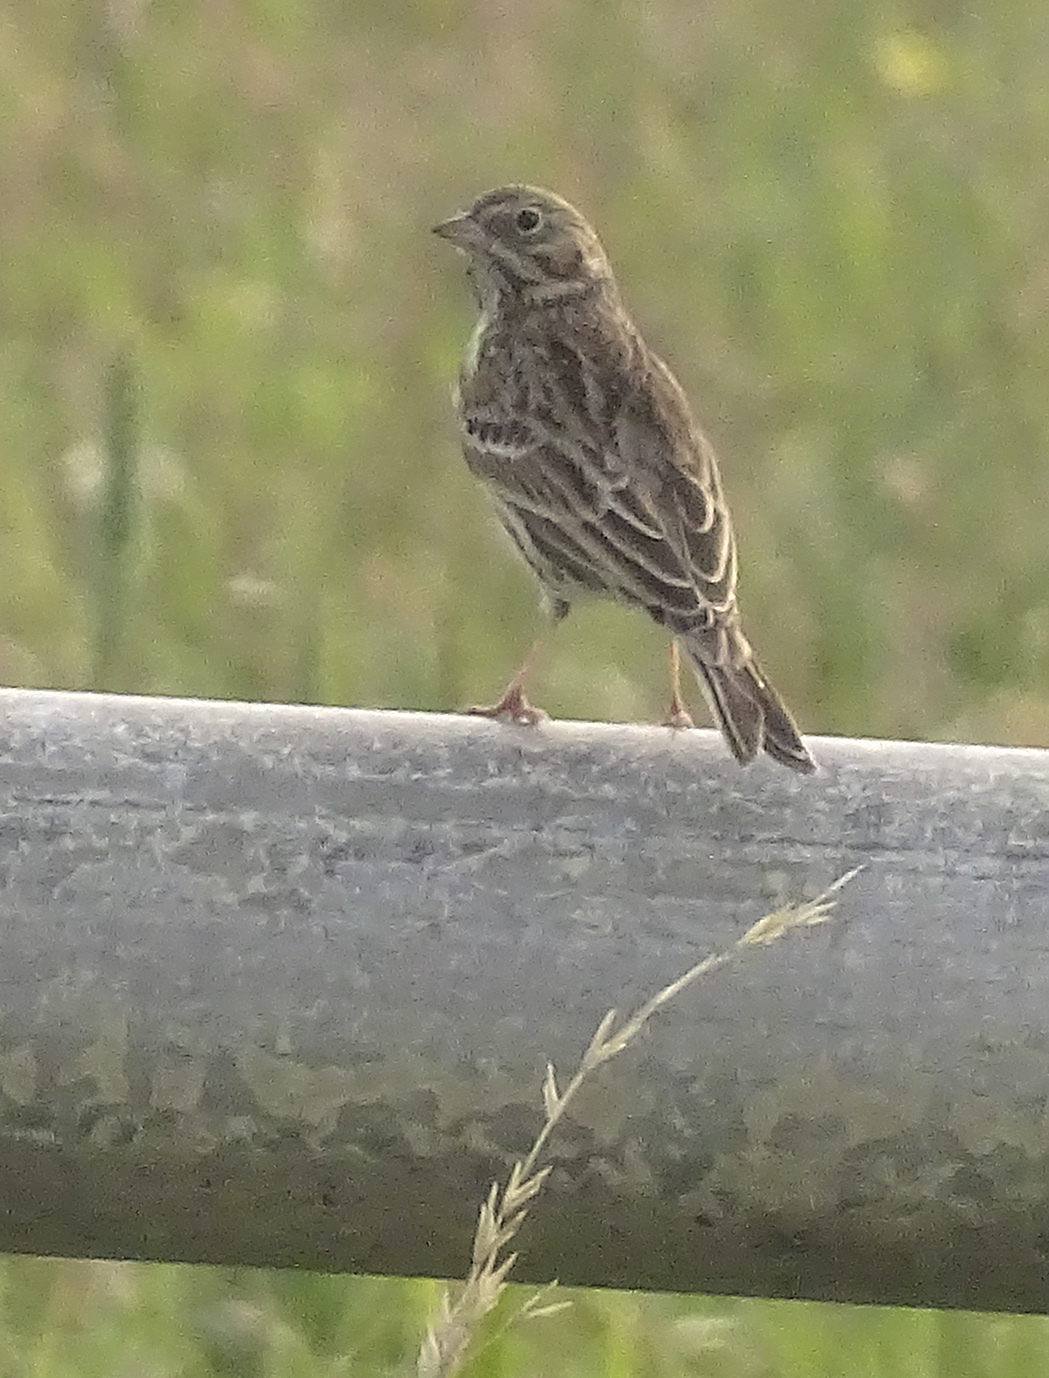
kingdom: Animalia
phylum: Chordata
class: Aves
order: Passeriformes
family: Passerellidae
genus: Pooecetes
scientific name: Pooecetes gramineus
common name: Vesper sparrow
